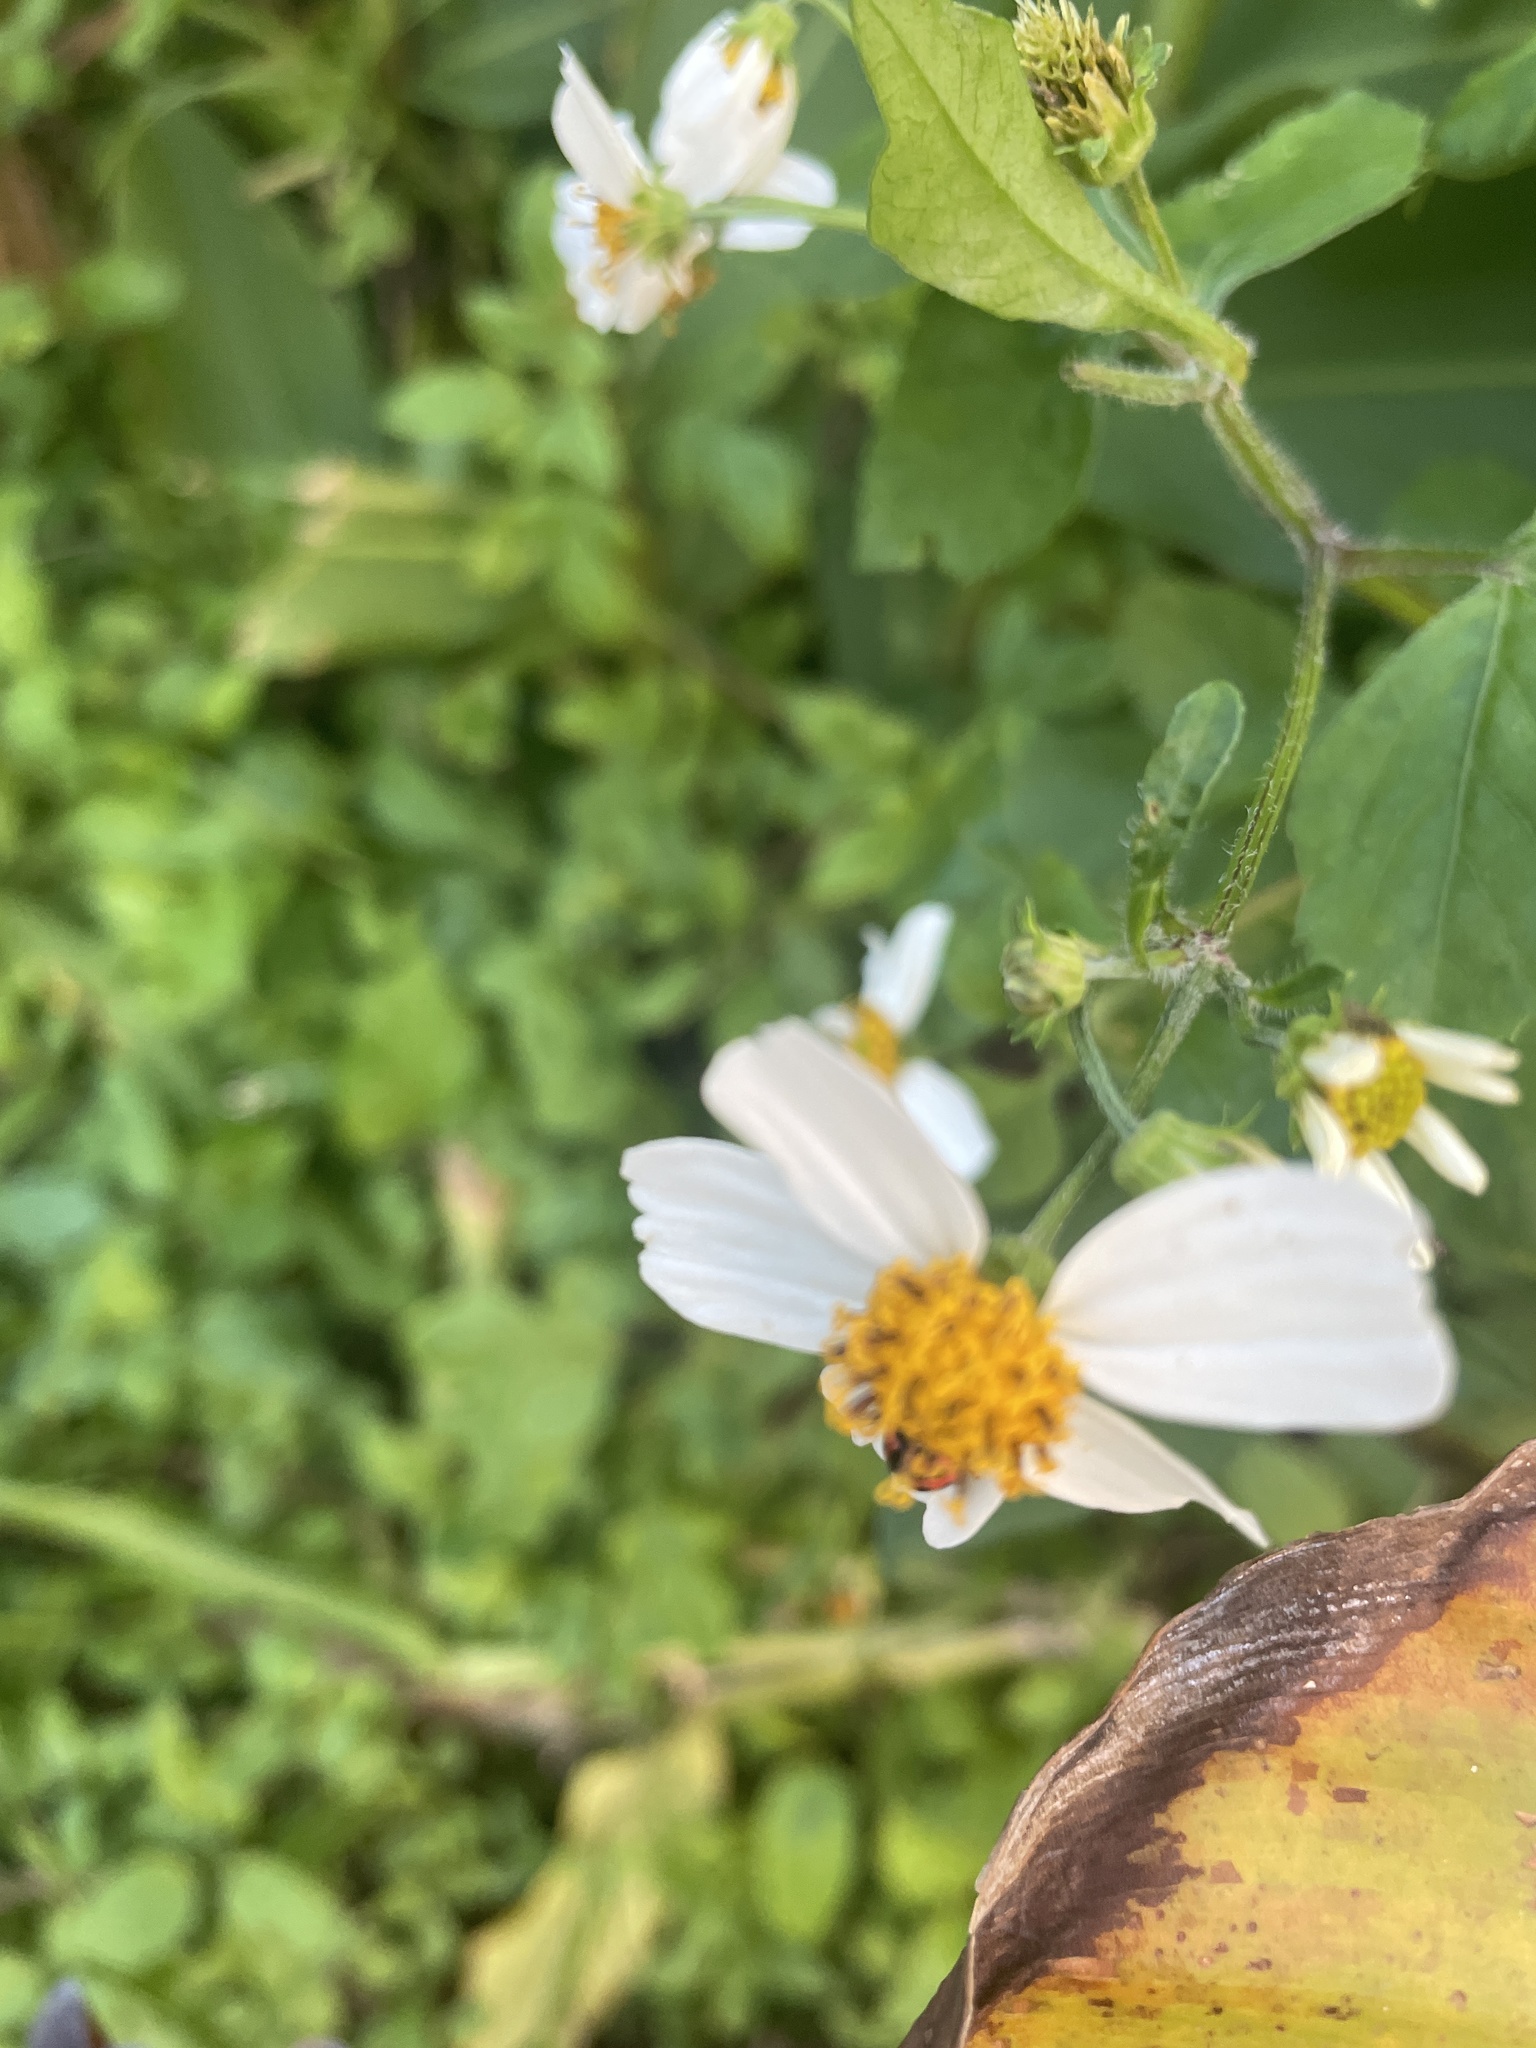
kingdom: Plantae
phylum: Tracheophyta
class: Magnoliopsida
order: Asterales
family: Asteraceae
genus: Bidens
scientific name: Bidens alba
